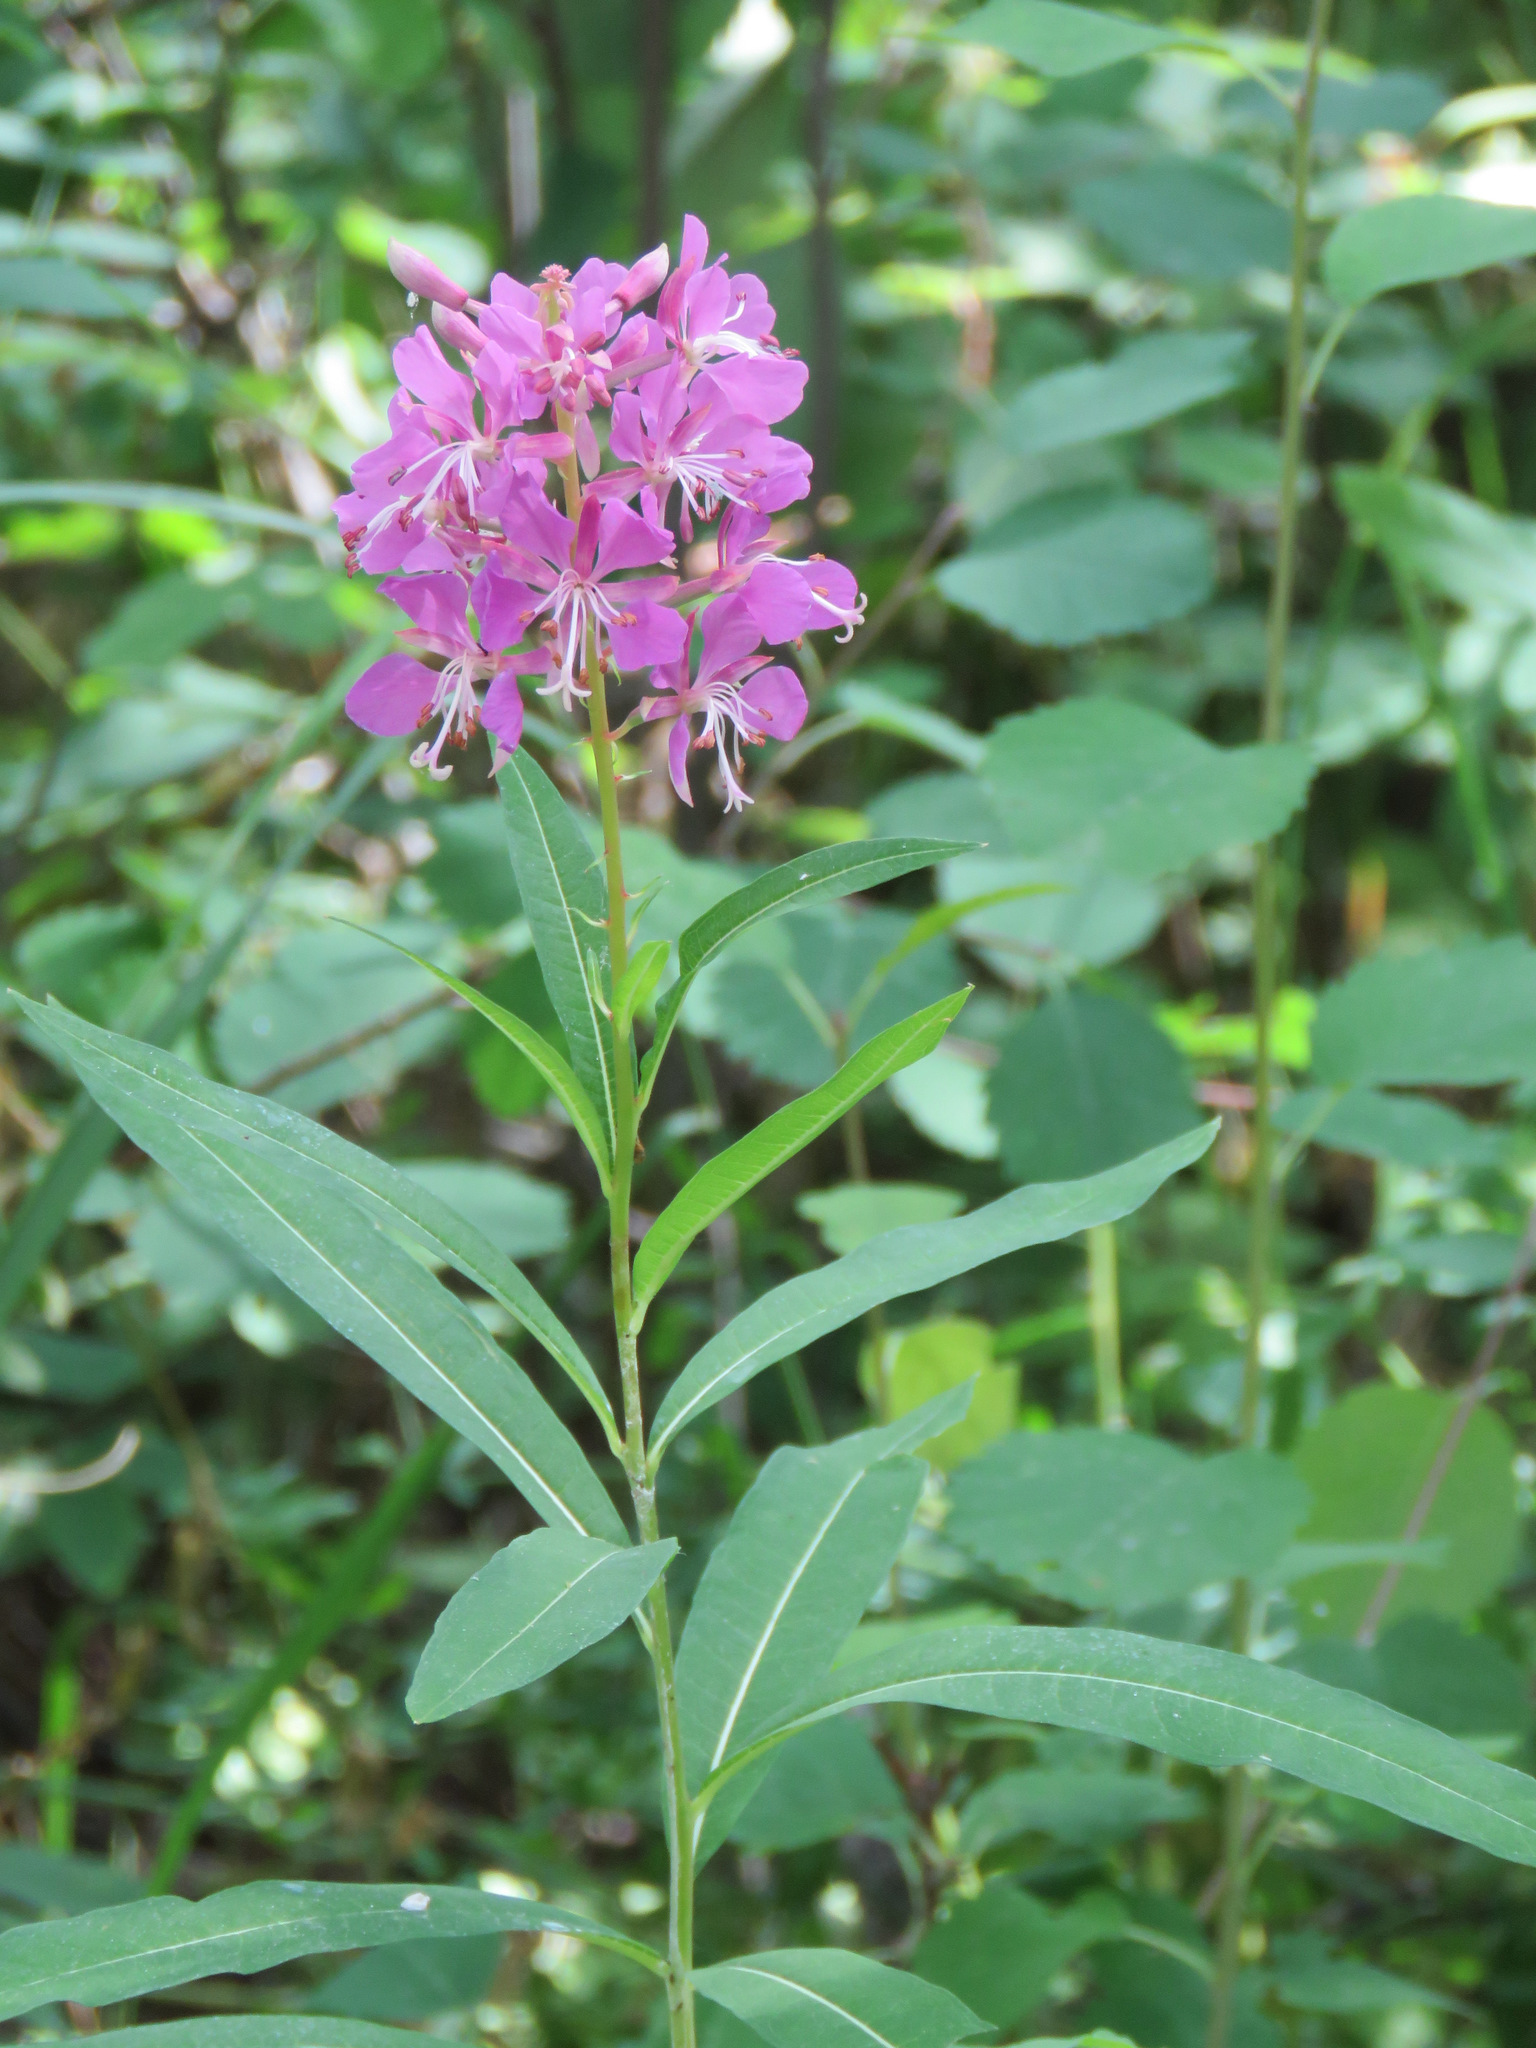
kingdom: Plantae
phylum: Tracheophyta
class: Magnoliopsida
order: Myrtales
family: Onagraceae
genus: Chamaenerion
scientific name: Chamaenerion angustifolium
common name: Fireweed
